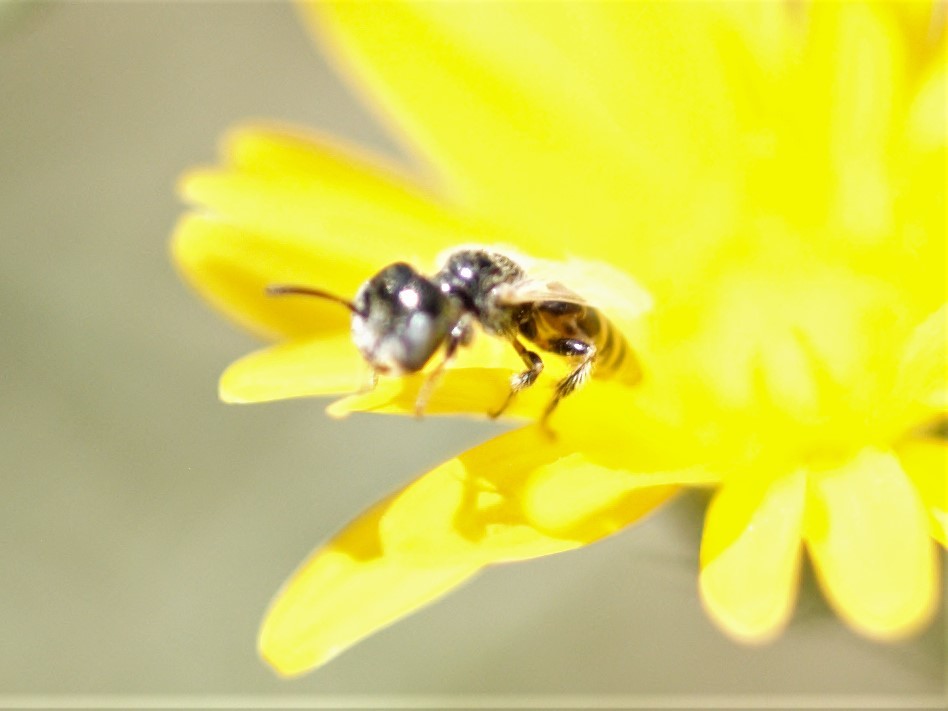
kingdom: Animalia
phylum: Arthropoda
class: Insecta
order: Hymenoptera
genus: Pentaperdita
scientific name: Pentaperdita
